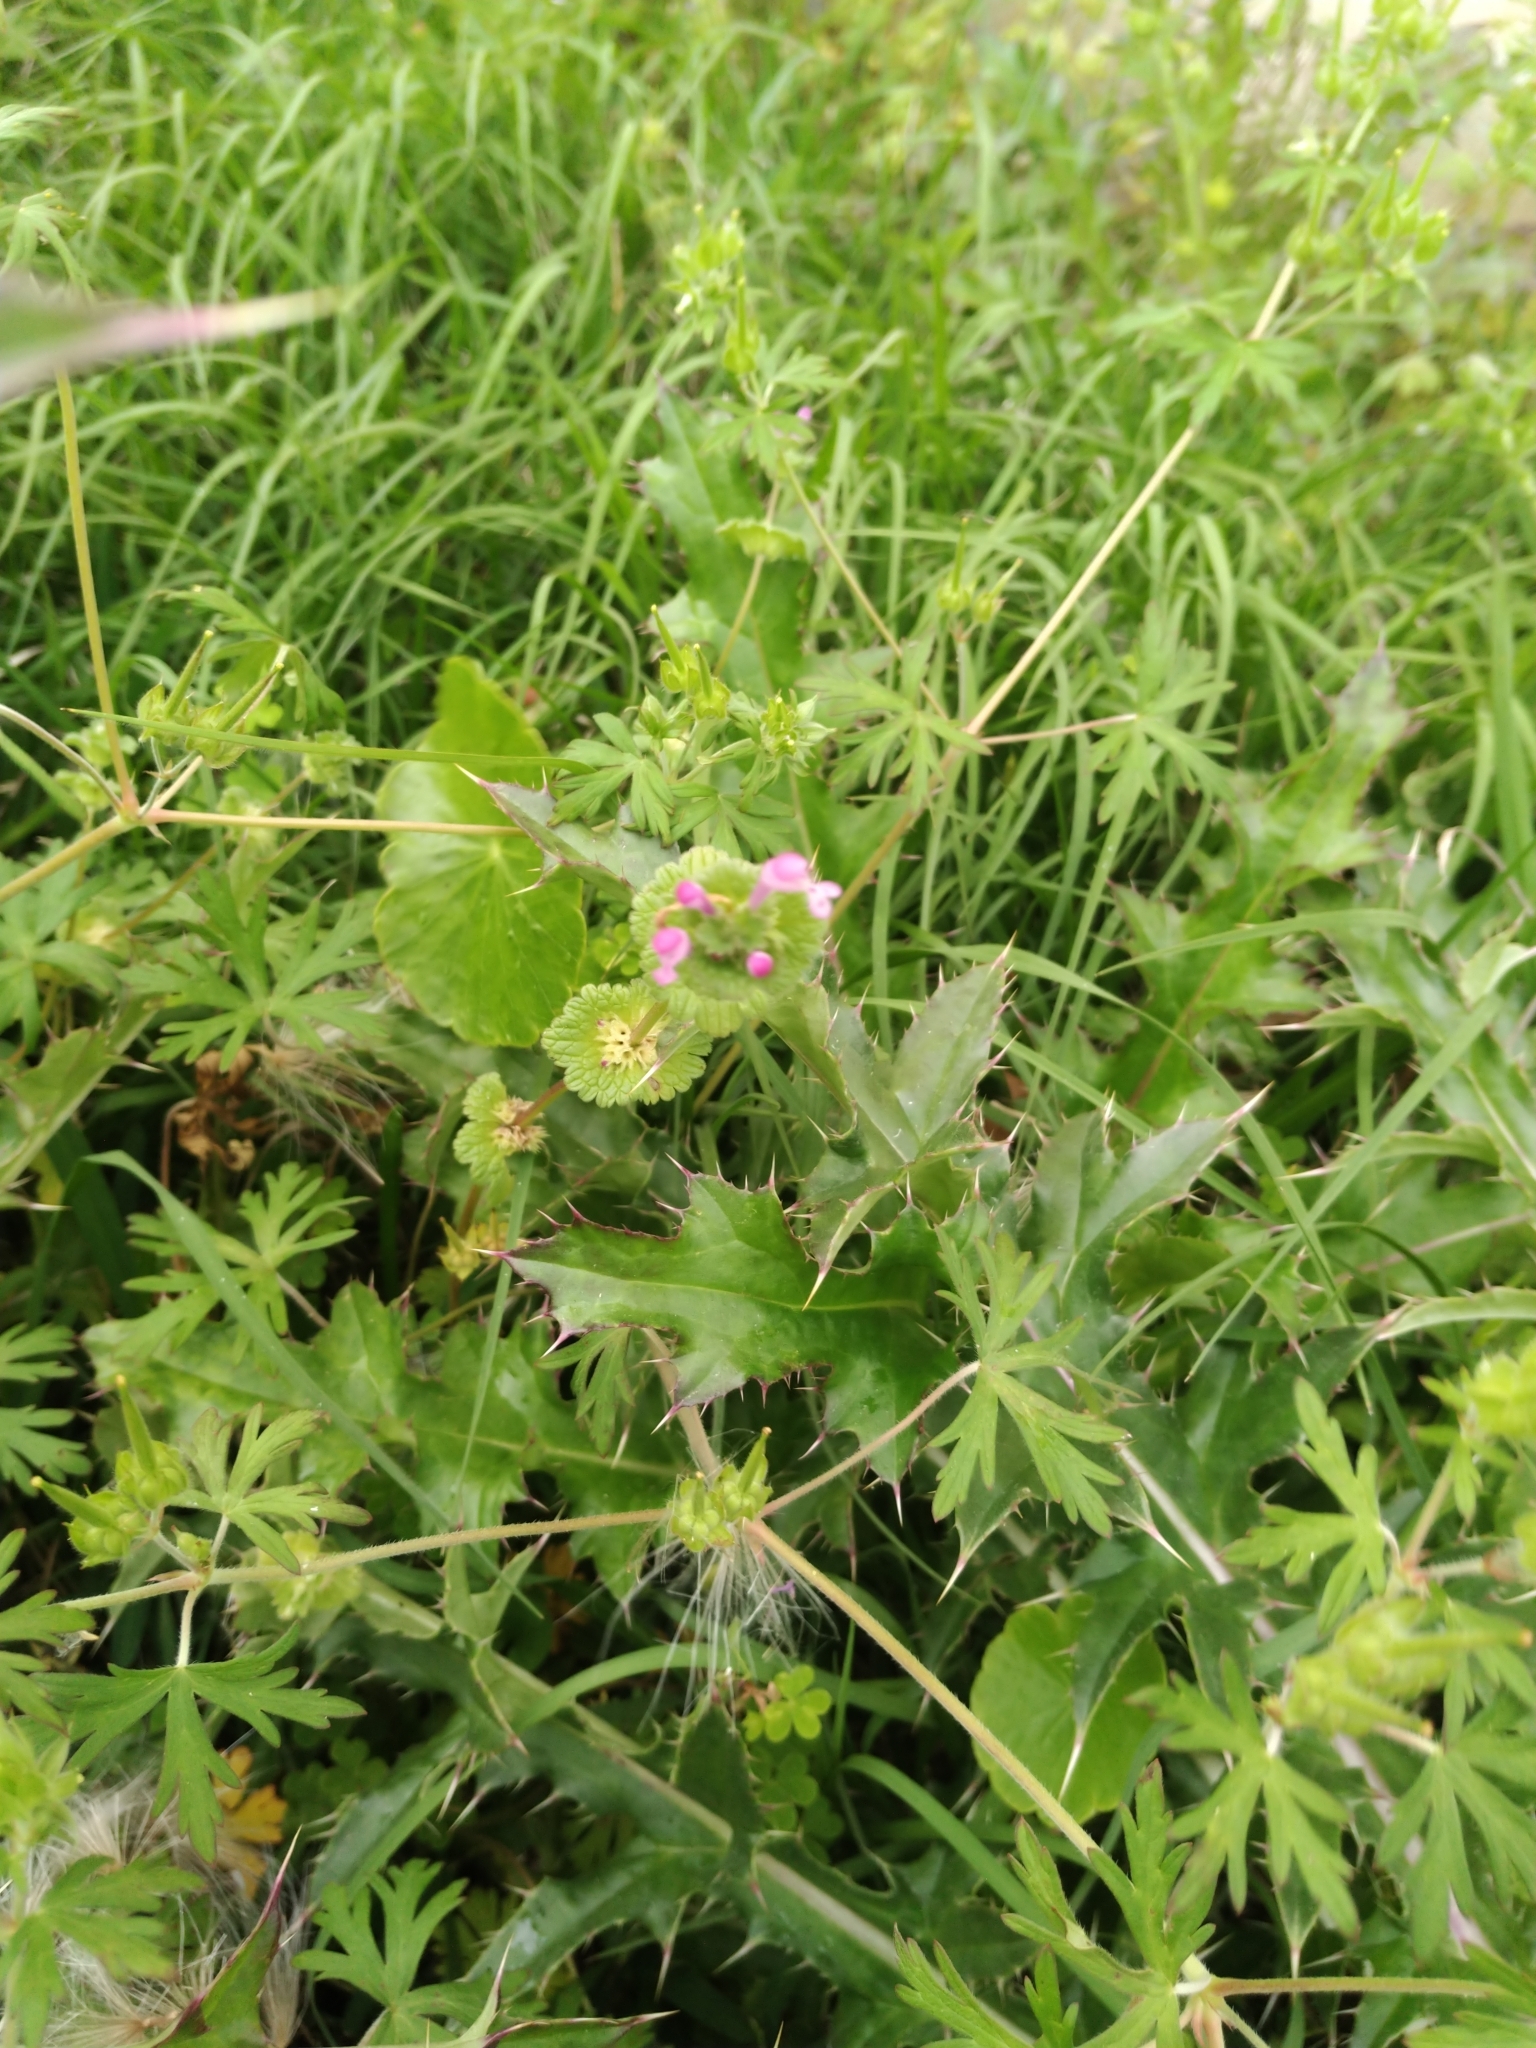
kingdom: Plantae
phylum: Tracheophyta
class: Magnoliopsida
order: Lamiales
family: Lamiaceae
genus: Lamium
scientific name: Lamium amplexicaule
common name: Henbit dead-nettle
